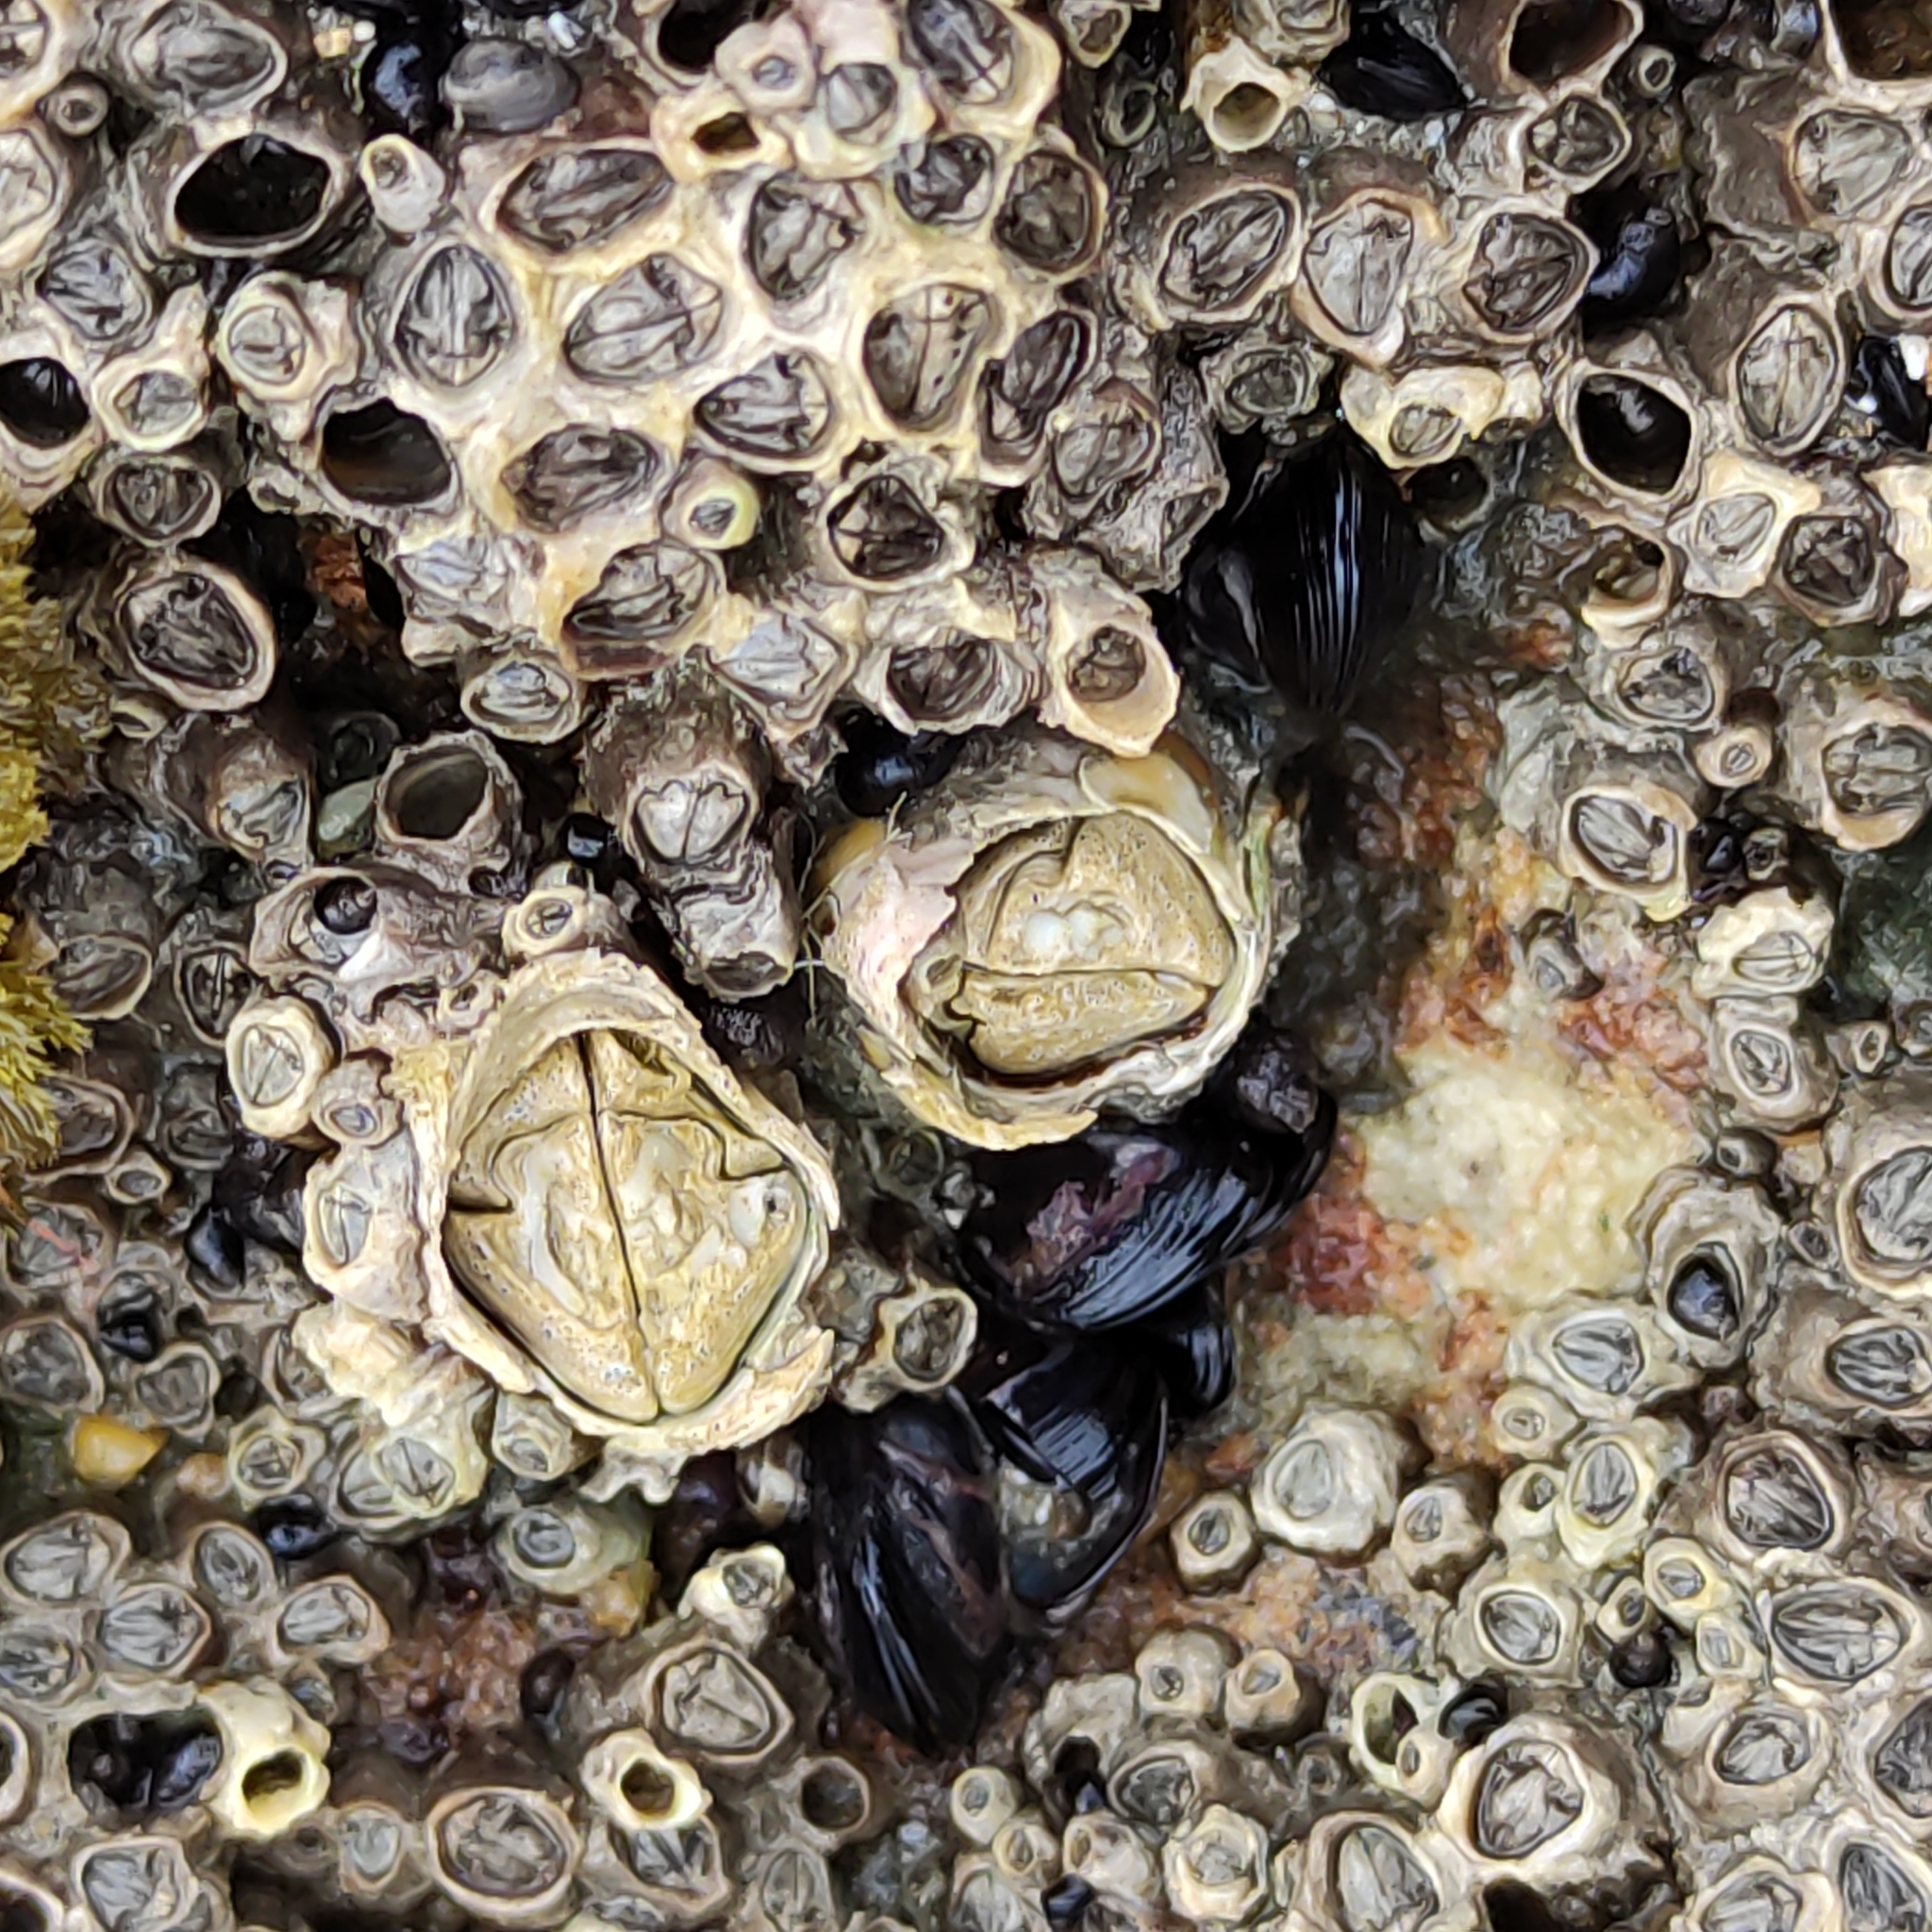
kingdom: Animalia
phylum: Arthropoda
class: Maxillopoda
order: Sessilia
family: Tetraclitidae
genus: Epopella
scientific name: Epopella plicata
